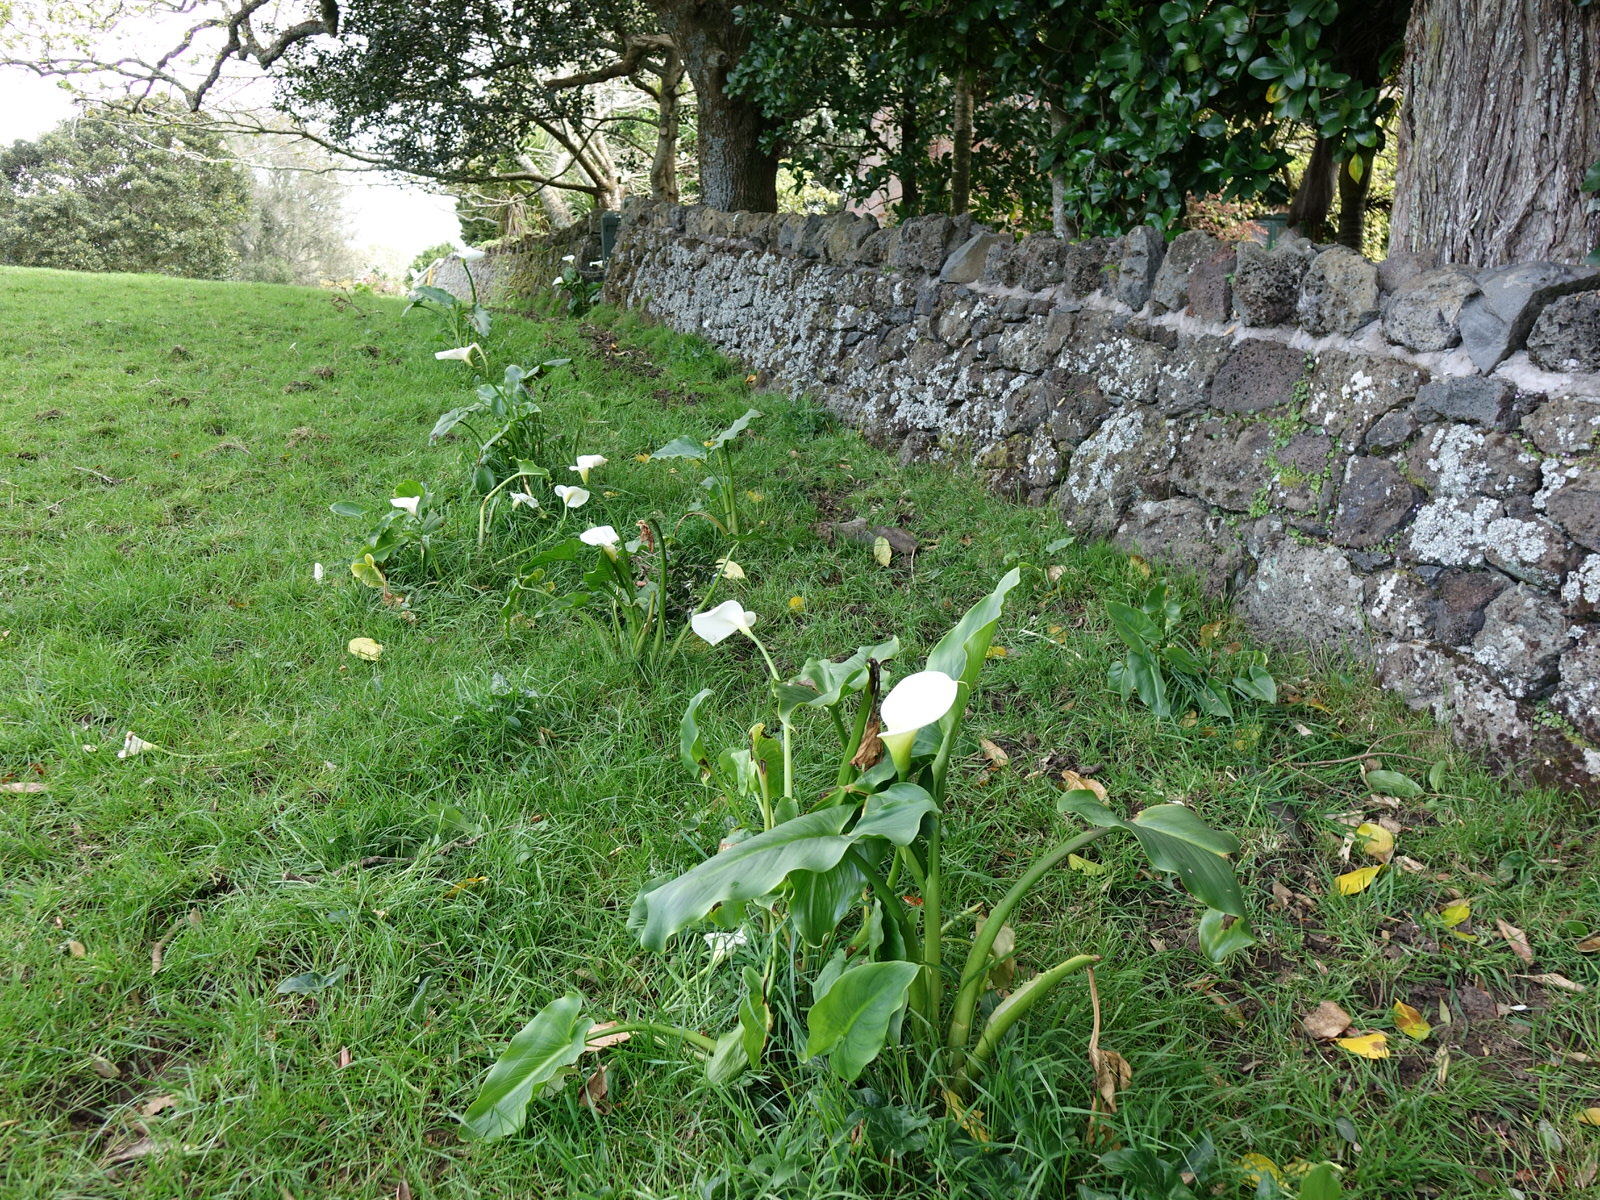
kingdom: Plantae
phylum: Tracheophyta
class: Liliopsida
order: Alismatales
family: Araceae
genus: Zantedeschia
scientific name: Zantedeschia aethiopica
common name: Altar-lily
